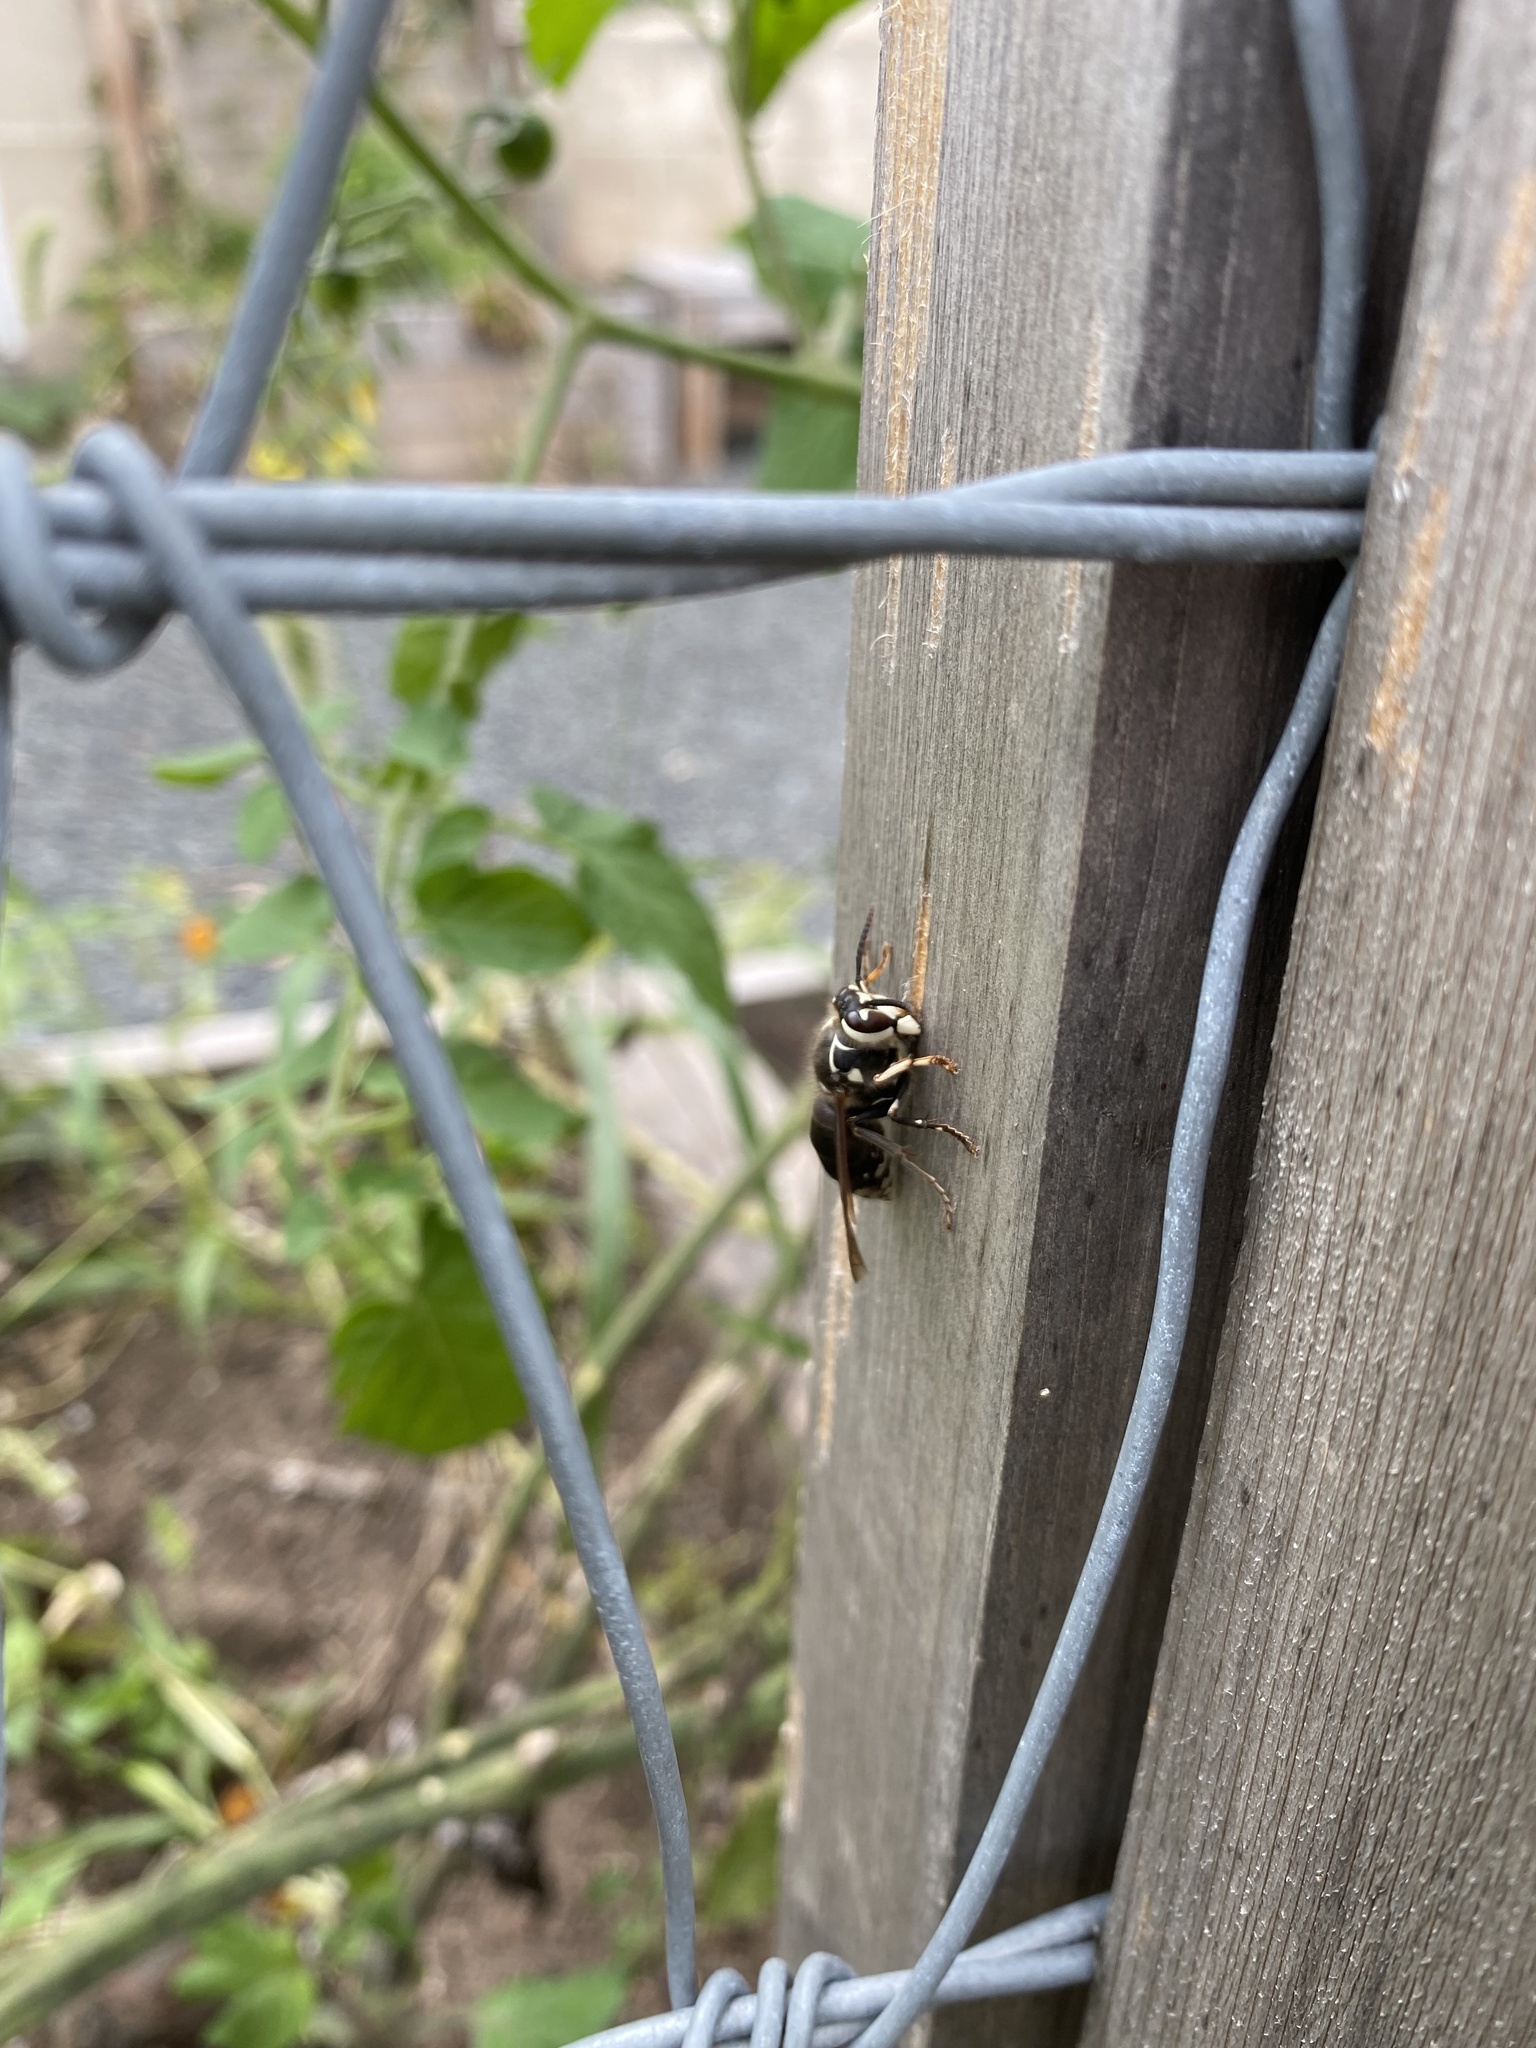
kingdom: Animalia
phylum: Arthropoda
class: Insecta
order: Hymenoptera
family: Vespidae
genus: Dolichovespula
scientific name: Dolichovespula maculata
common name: Bald-faced hornet
